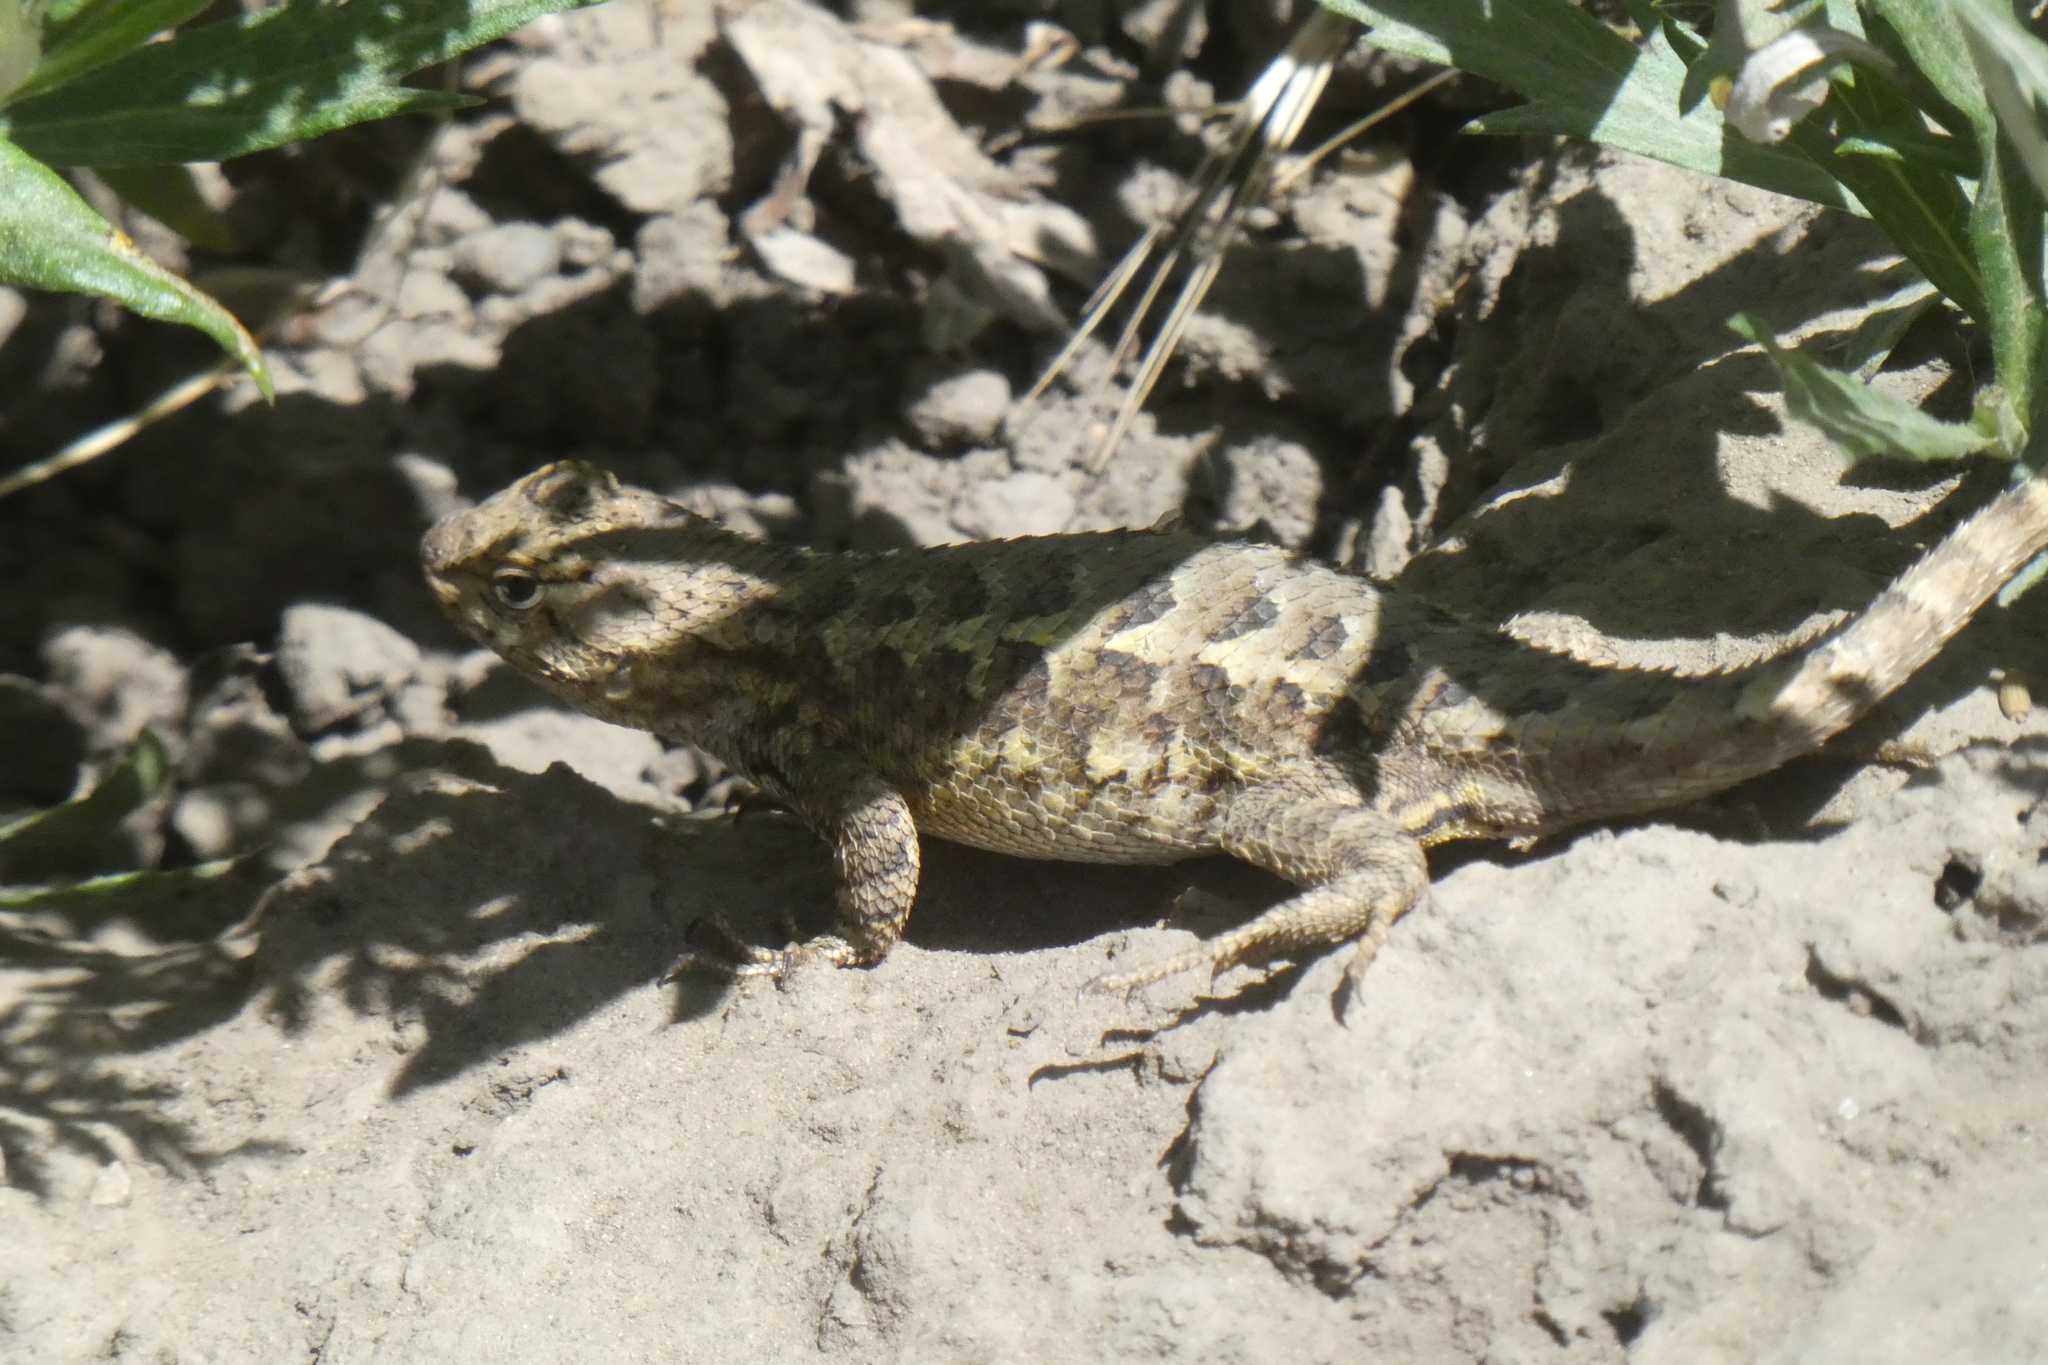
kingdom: Animalia
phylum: Chordata
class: Squamata
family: Phrynosomatidae
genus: Sceloporus
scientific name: Sceloporus occidentalis
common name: Western fence lizard
